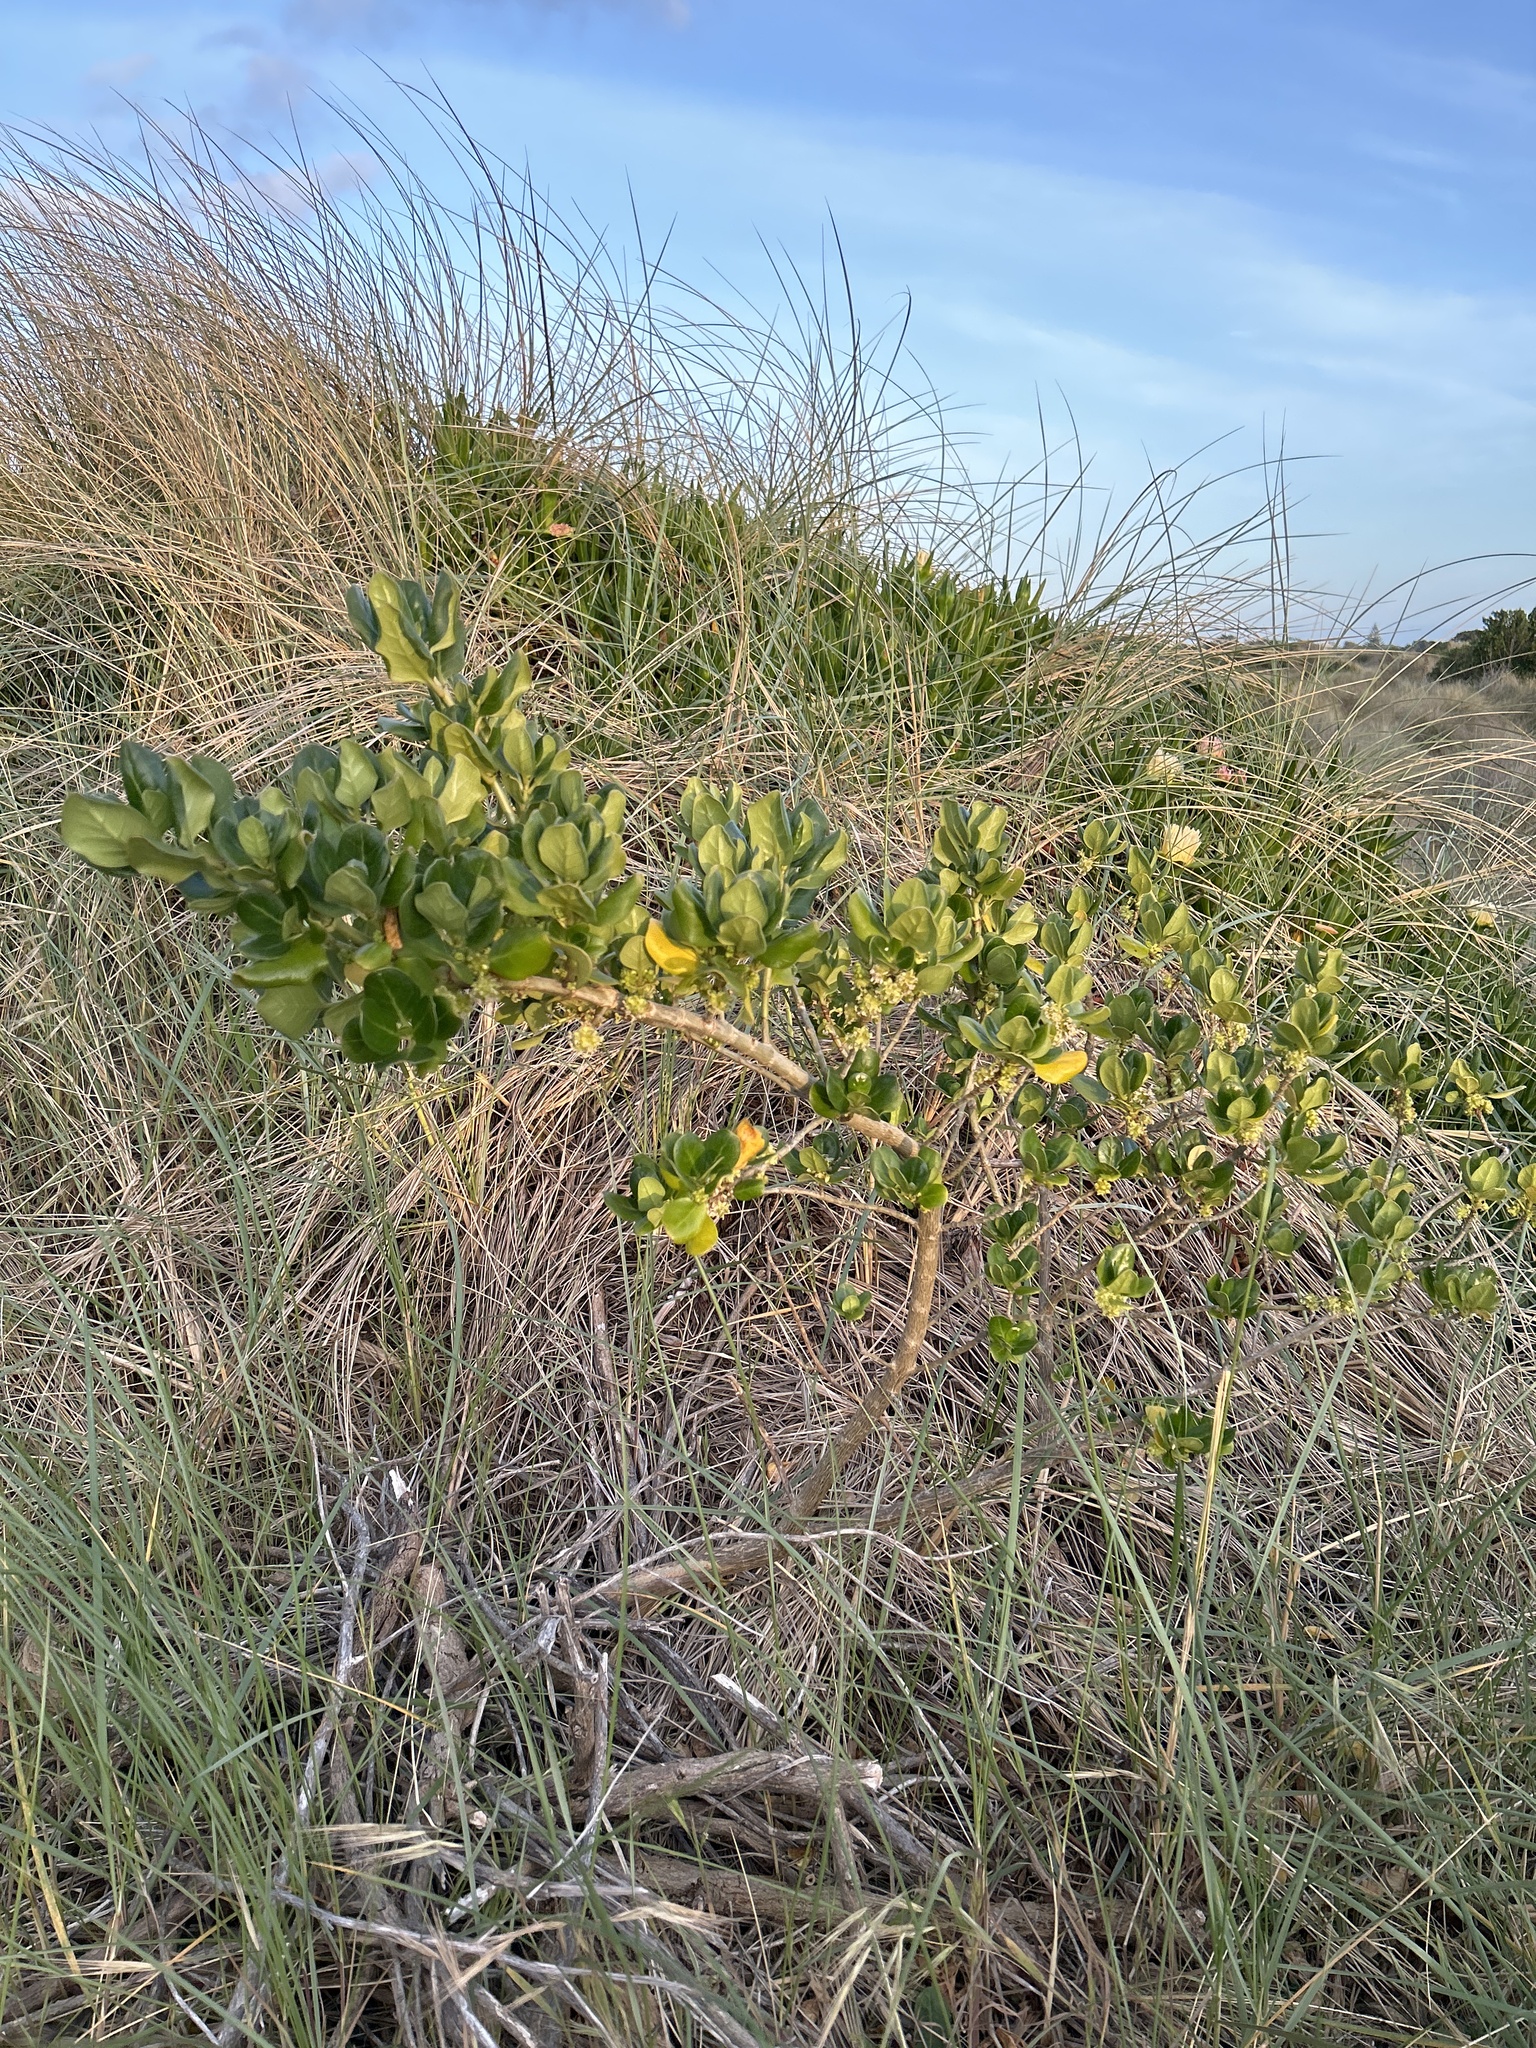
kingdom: Plantae
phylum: Tracheophyta
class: Magnoliopsida
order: Gentianales
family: Rubiaceae
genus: Coprosma
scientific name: Coprosma repens
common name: Tree bedstraw
